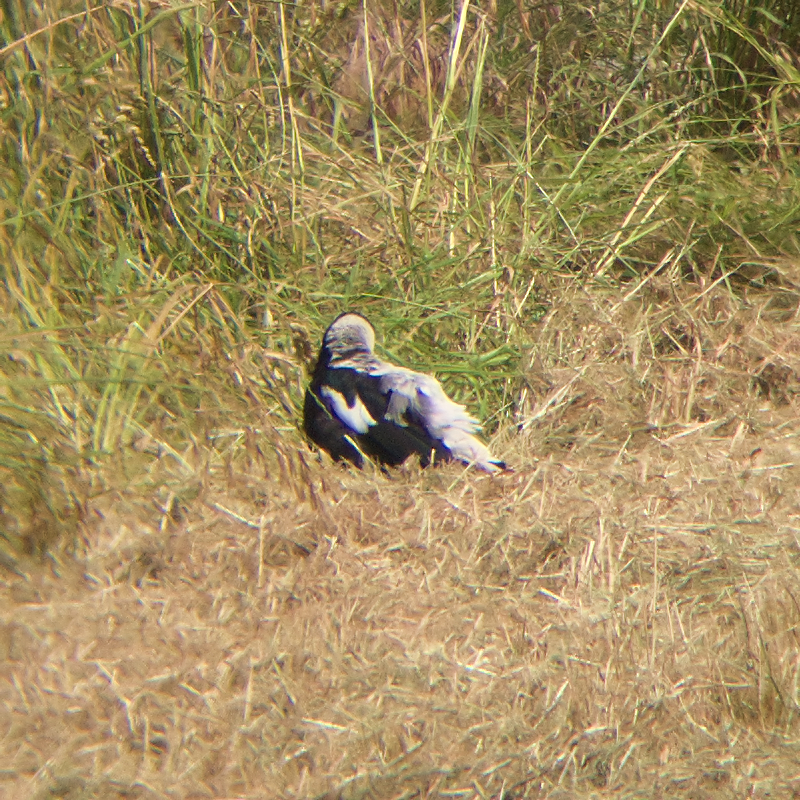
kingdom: Animalia
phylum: Chordata
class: Aves
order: Passeriformes
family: Cracticidae
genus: Gymnorhina
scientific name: Gymnorhina tibicen
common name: Australian magpie
